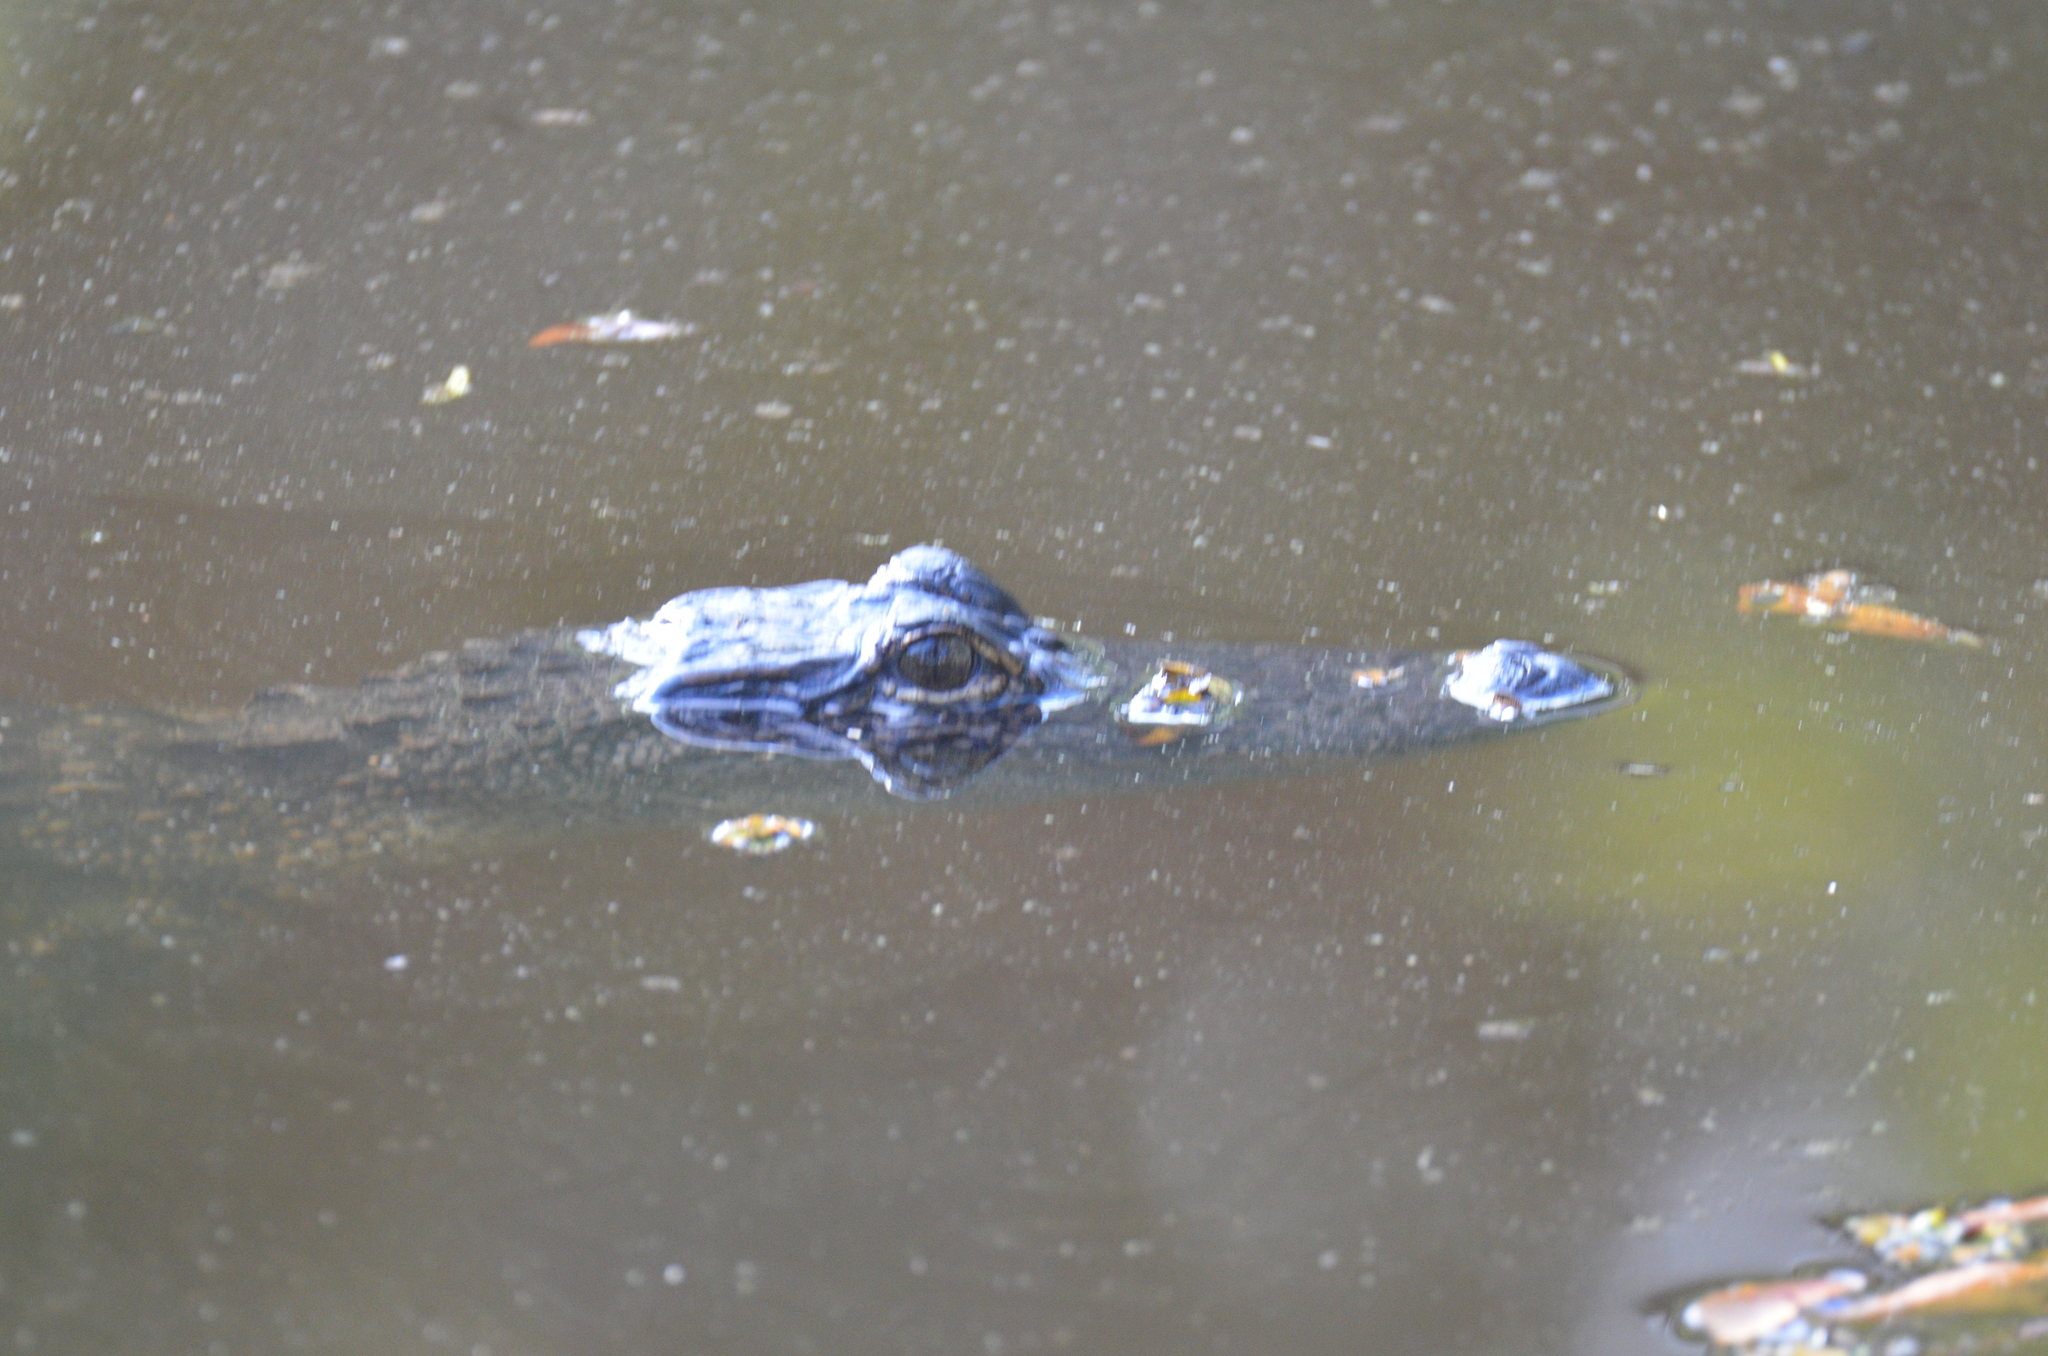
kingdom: Animalia
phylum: Chordata
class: Crocodylia
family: Alligatoridae
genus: Alligator
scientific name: Alligator mississippiensis
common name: American alligator
